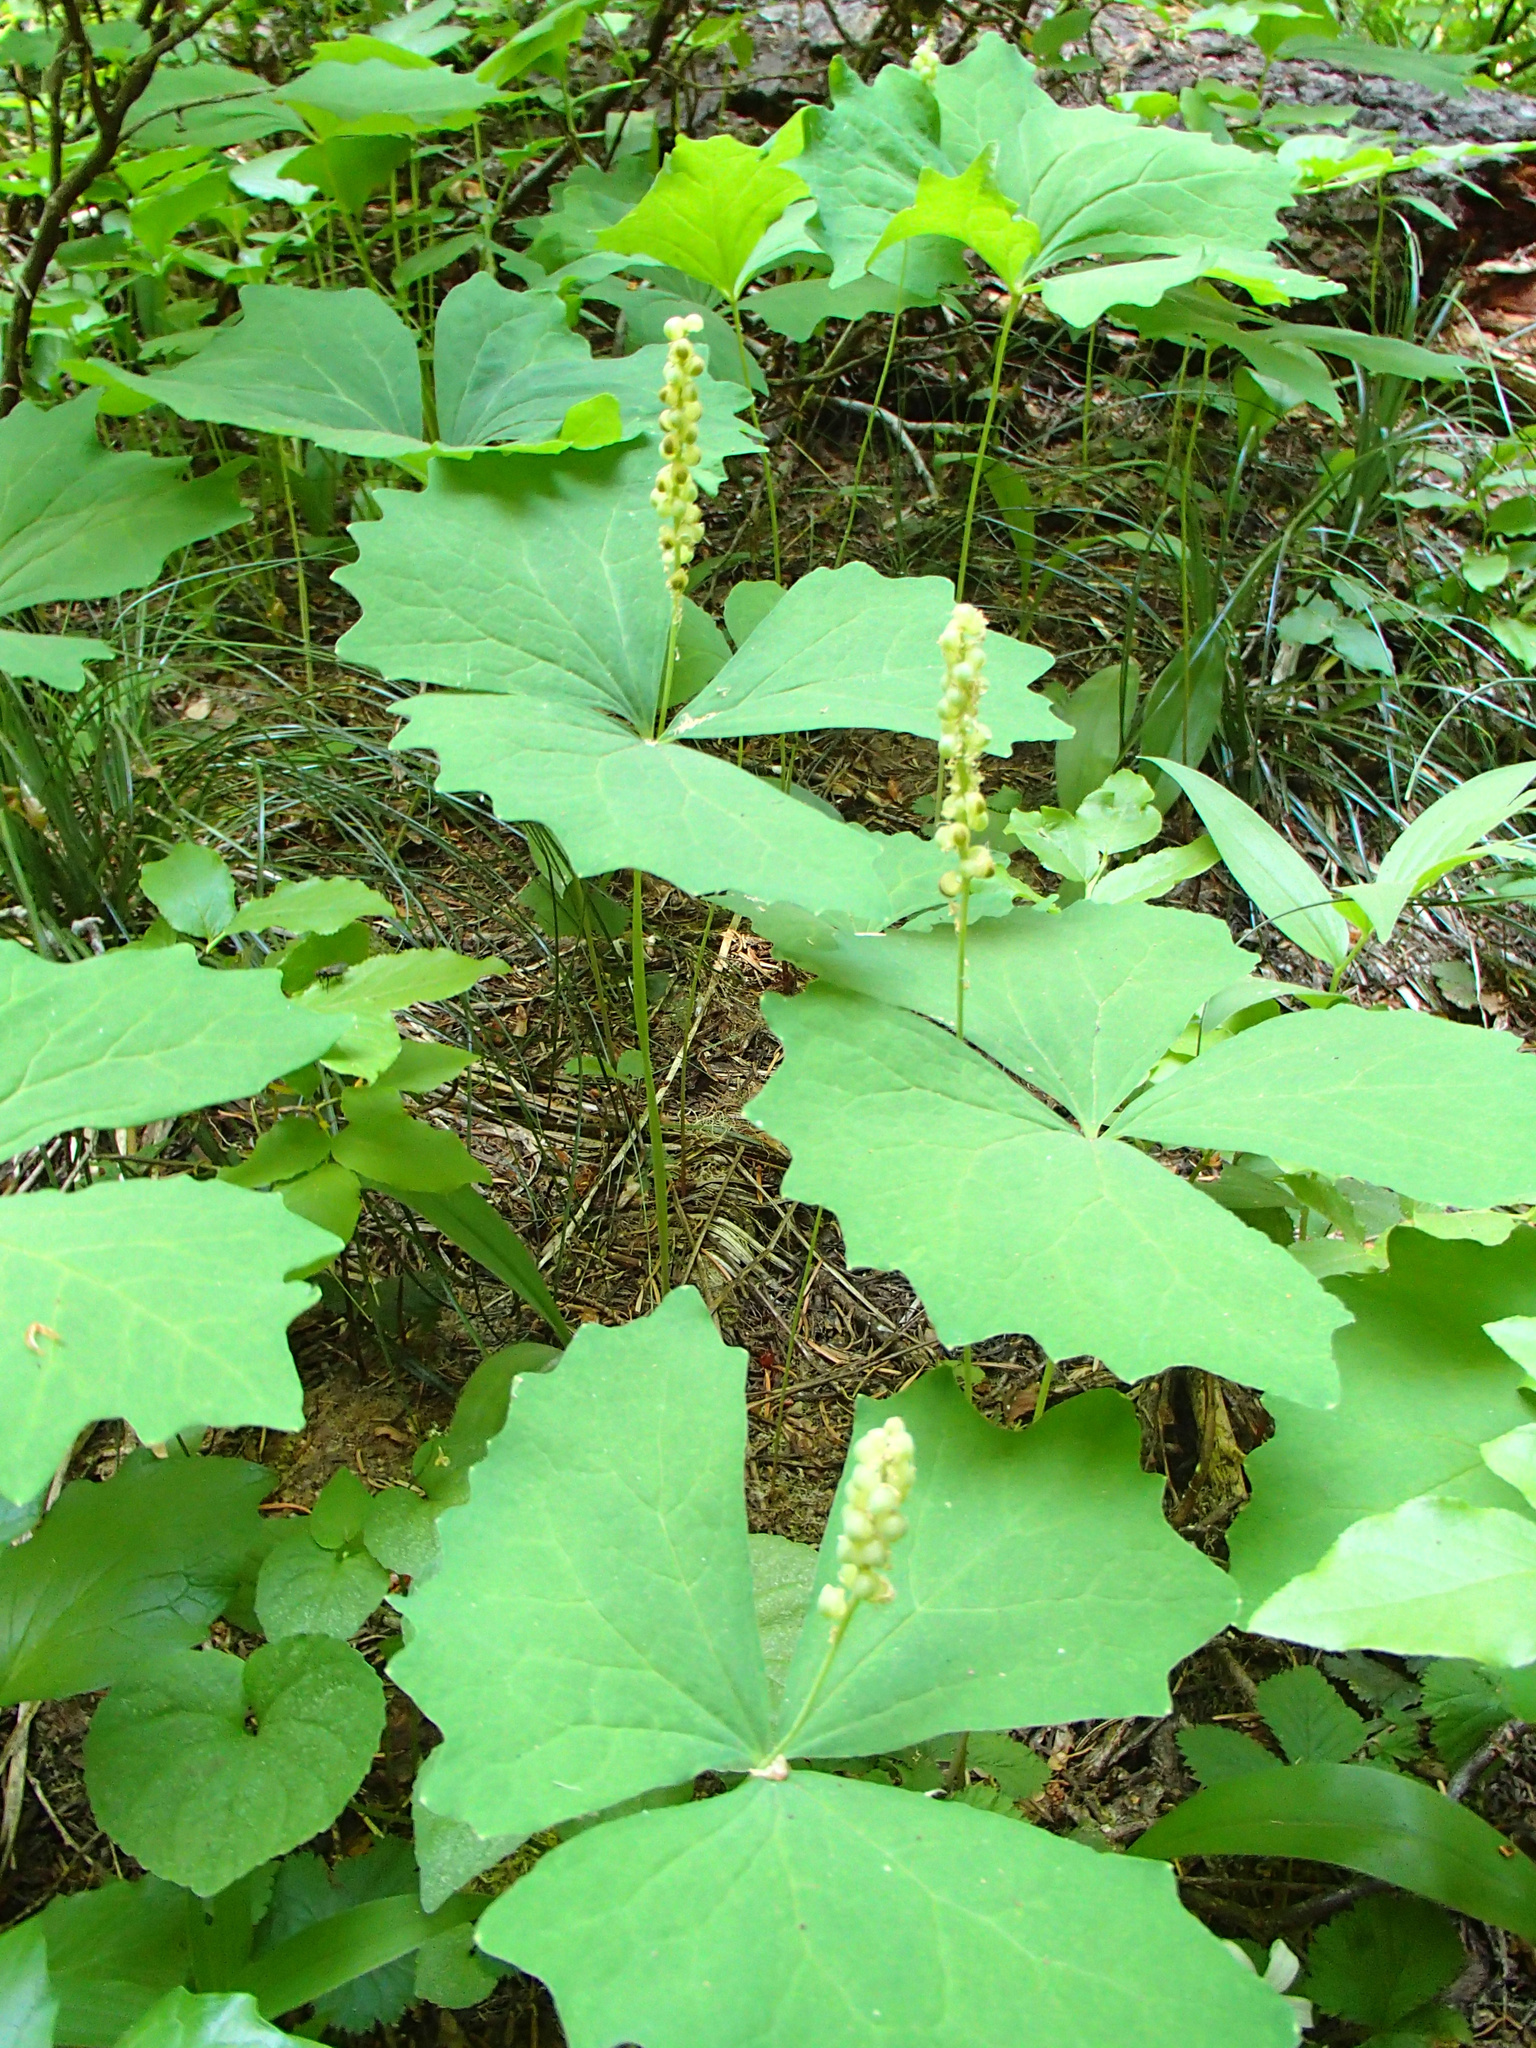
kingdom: Plantae
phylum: Tracheophyta
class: Magnoliopsida
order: Ranunculales
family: Berberidaceae
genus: Achlys
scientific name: Achlys triphylla
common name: Vanilla-leaf
